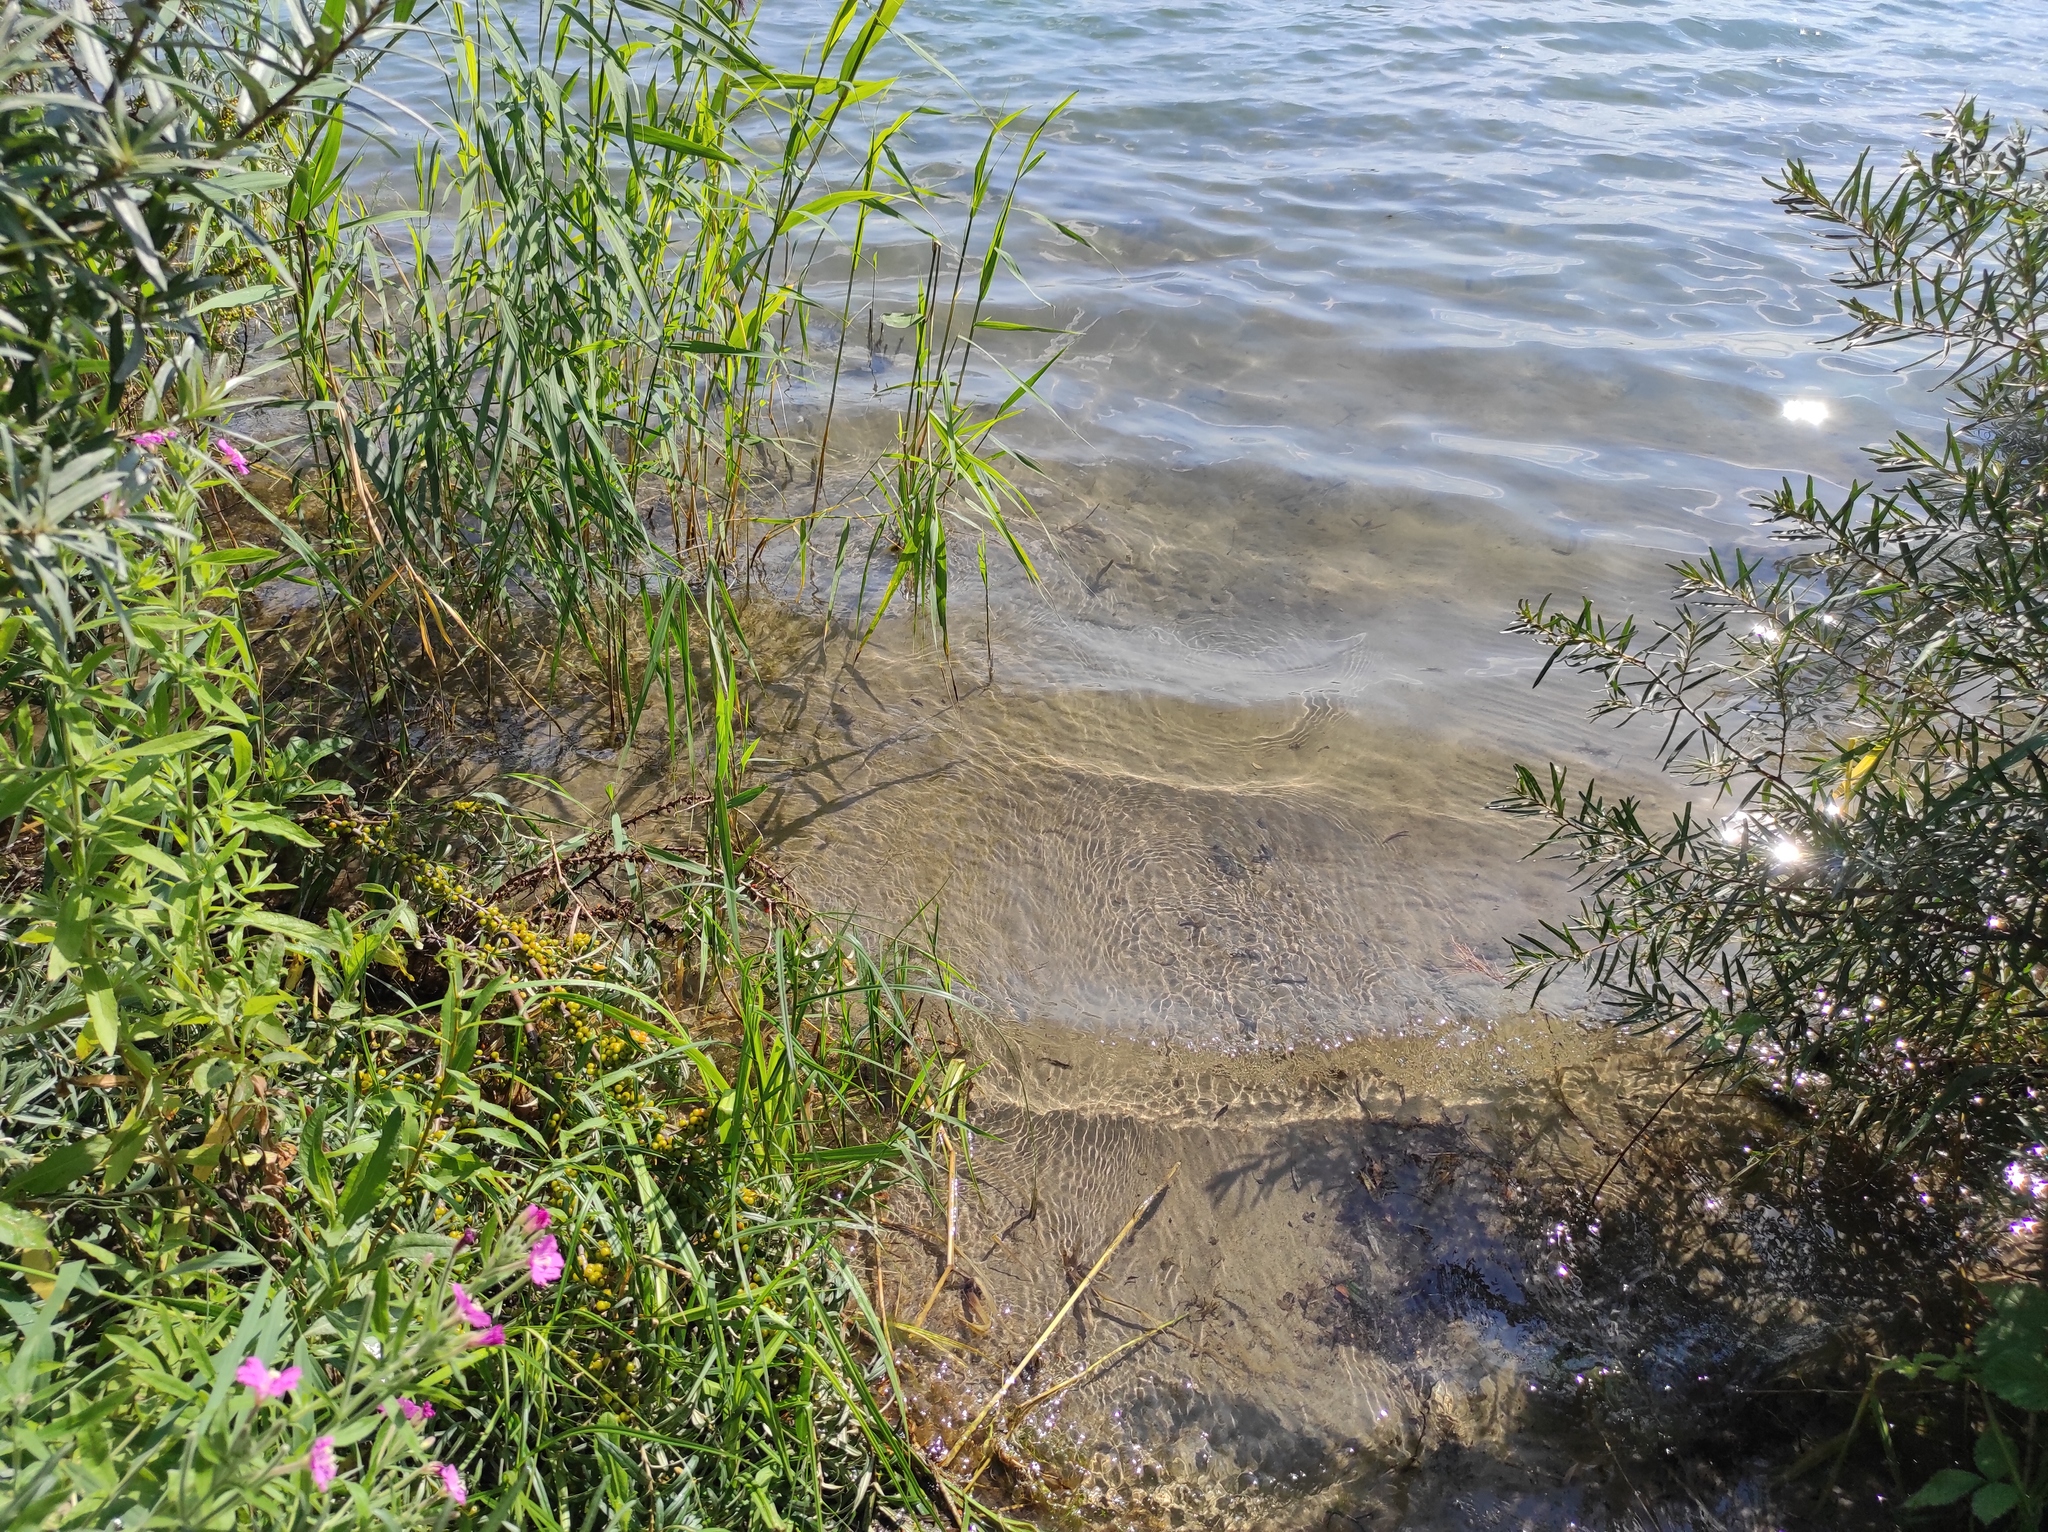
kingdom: Plantae
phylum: Tracheophyta
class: Magnoliopsida
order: Myrtales
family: Onagraceae
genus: Epilobium
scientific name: Epilobium hirsutum
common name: Great willowherb
